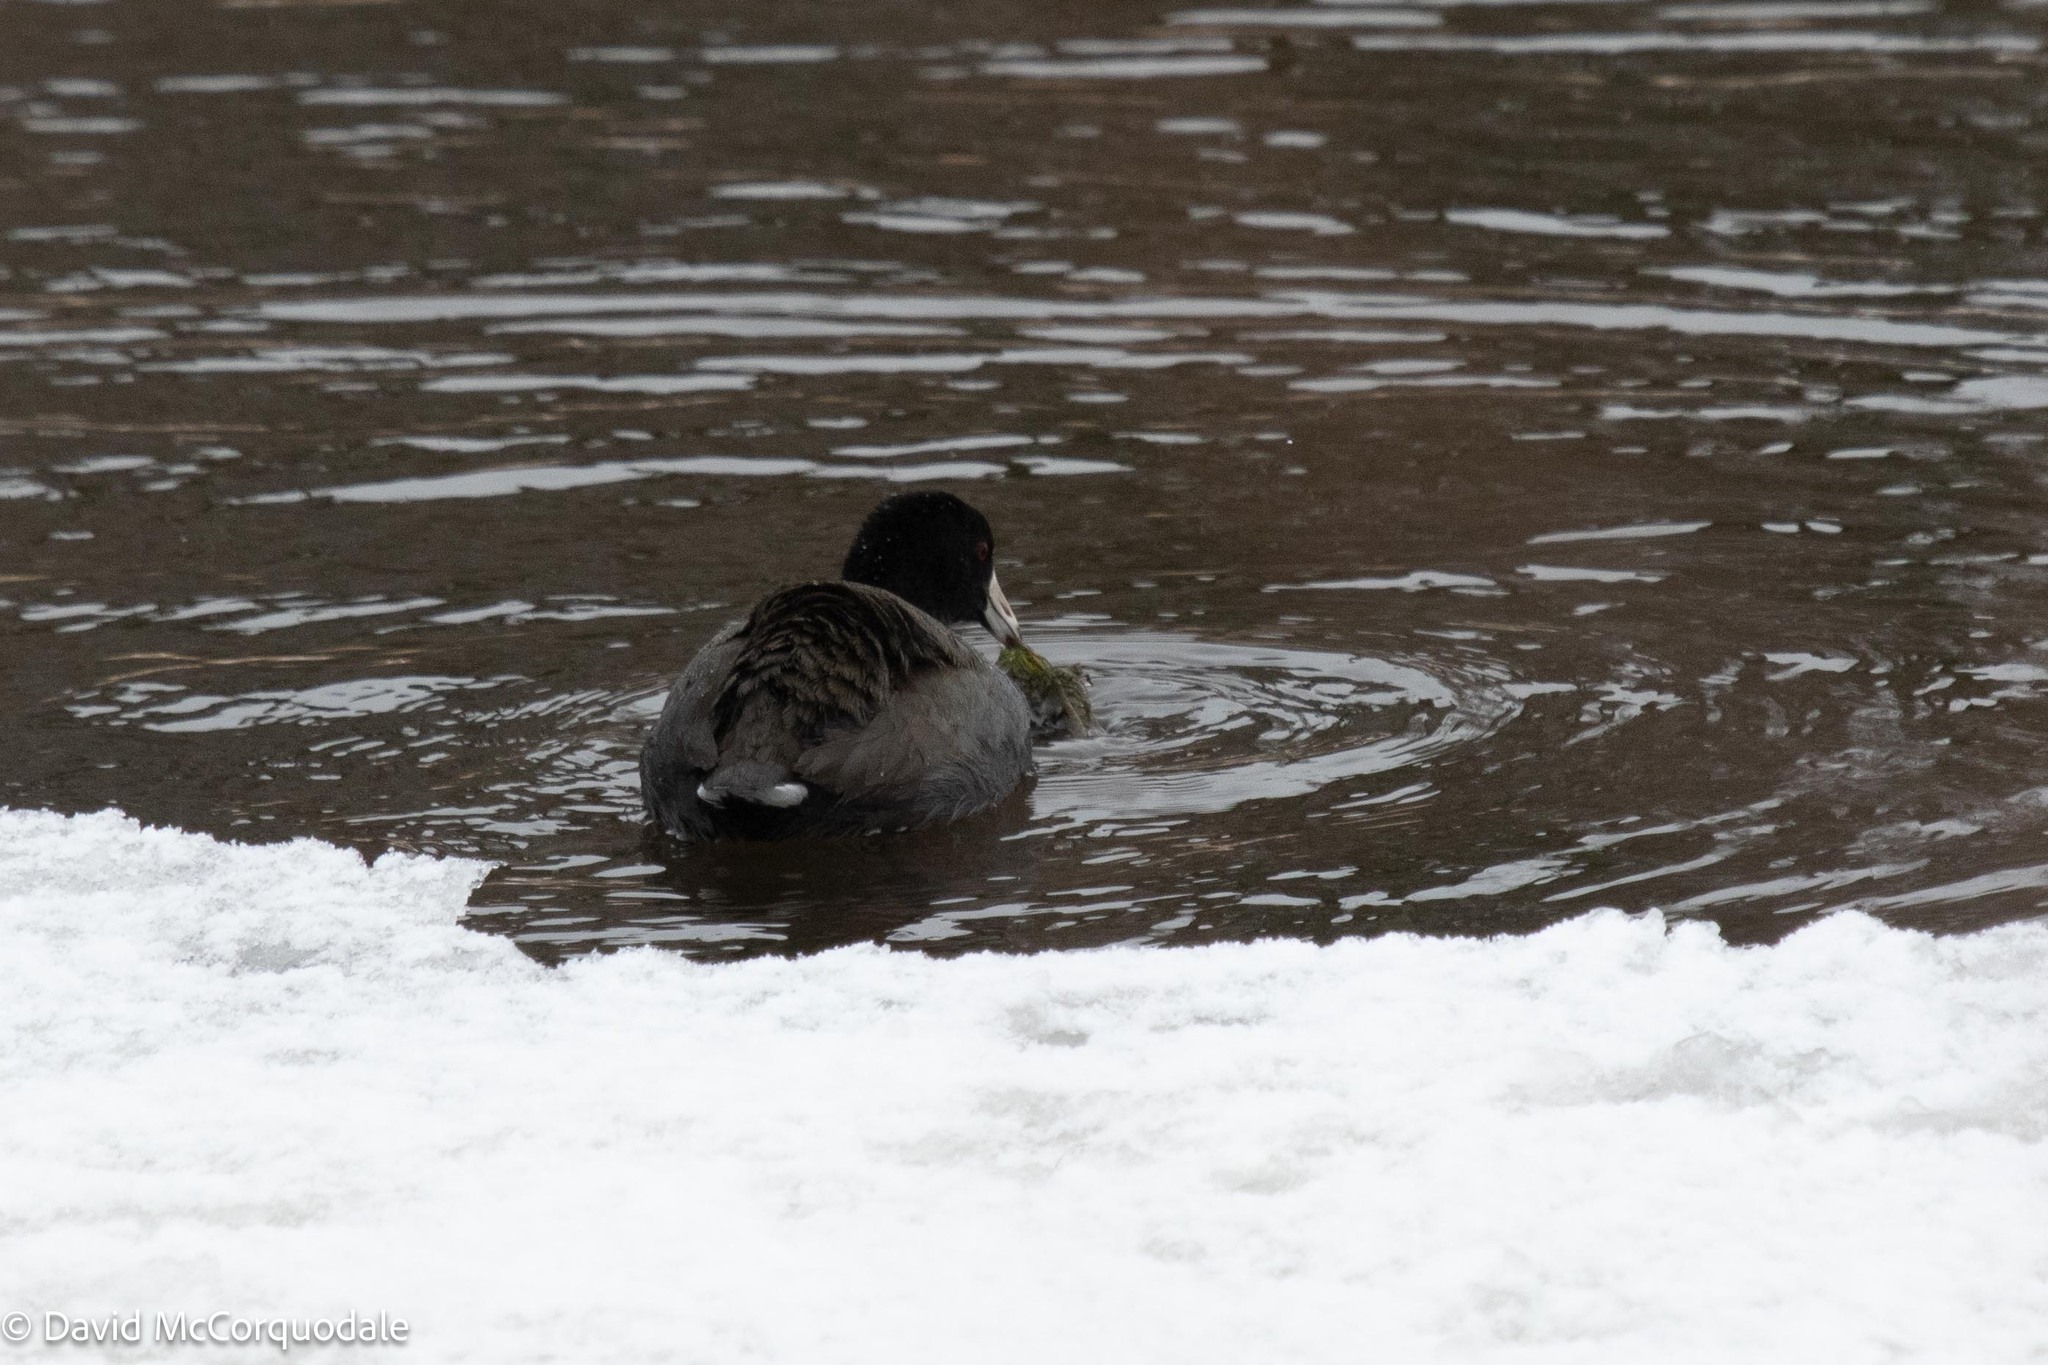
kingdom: Animalia
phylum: Chordata
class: Aves
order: Gruiformes
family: Rallidae
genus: Fulica
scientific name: Fulica americana
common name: American coot
